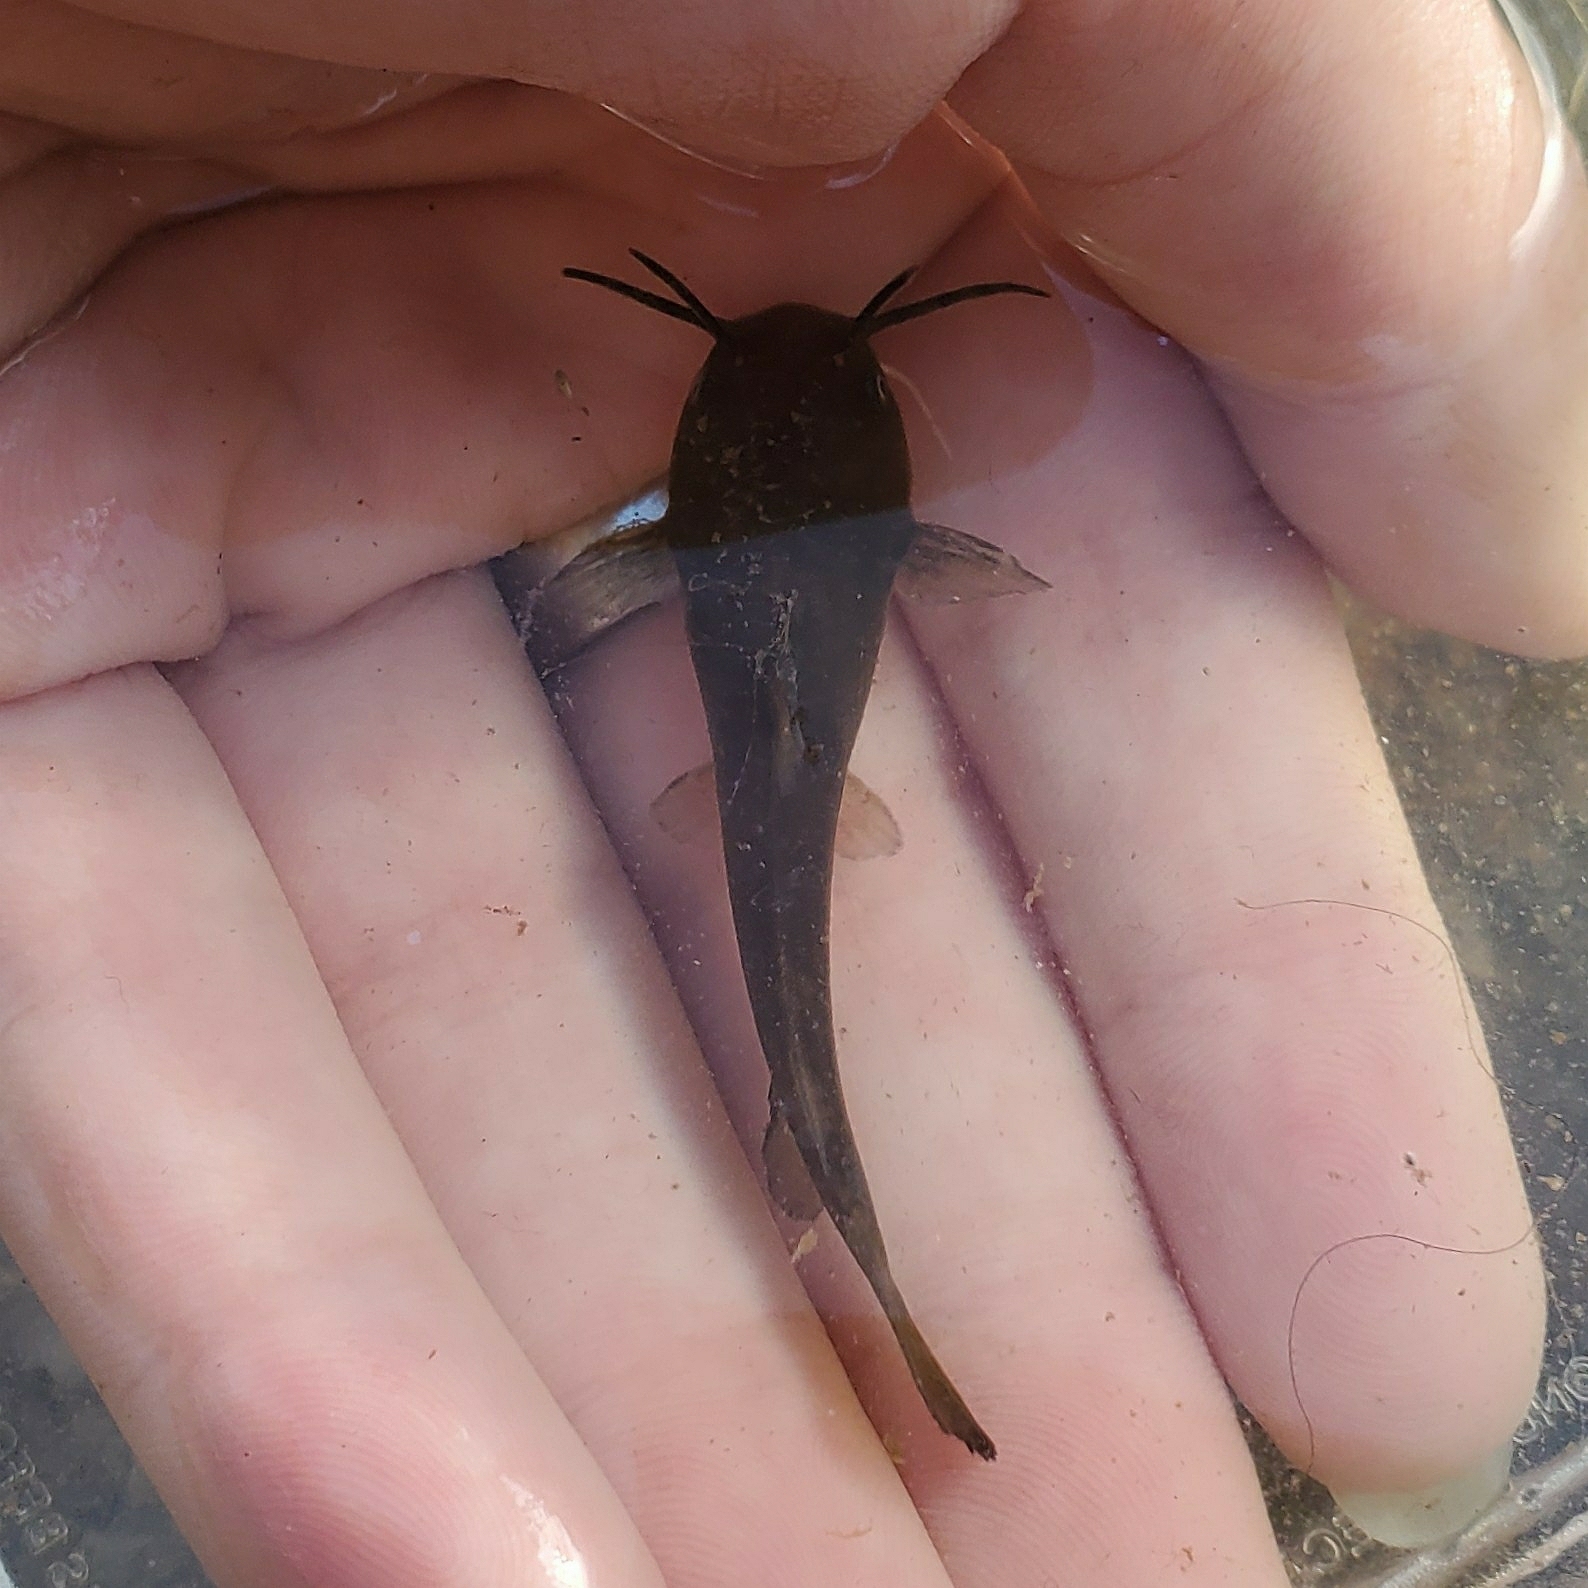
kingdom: Animalia
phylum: Chordata
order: Siluriformes
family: Ictaluridae
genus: Ameiurus
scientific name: Ameiurus natalis
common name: Yellow bullhead
